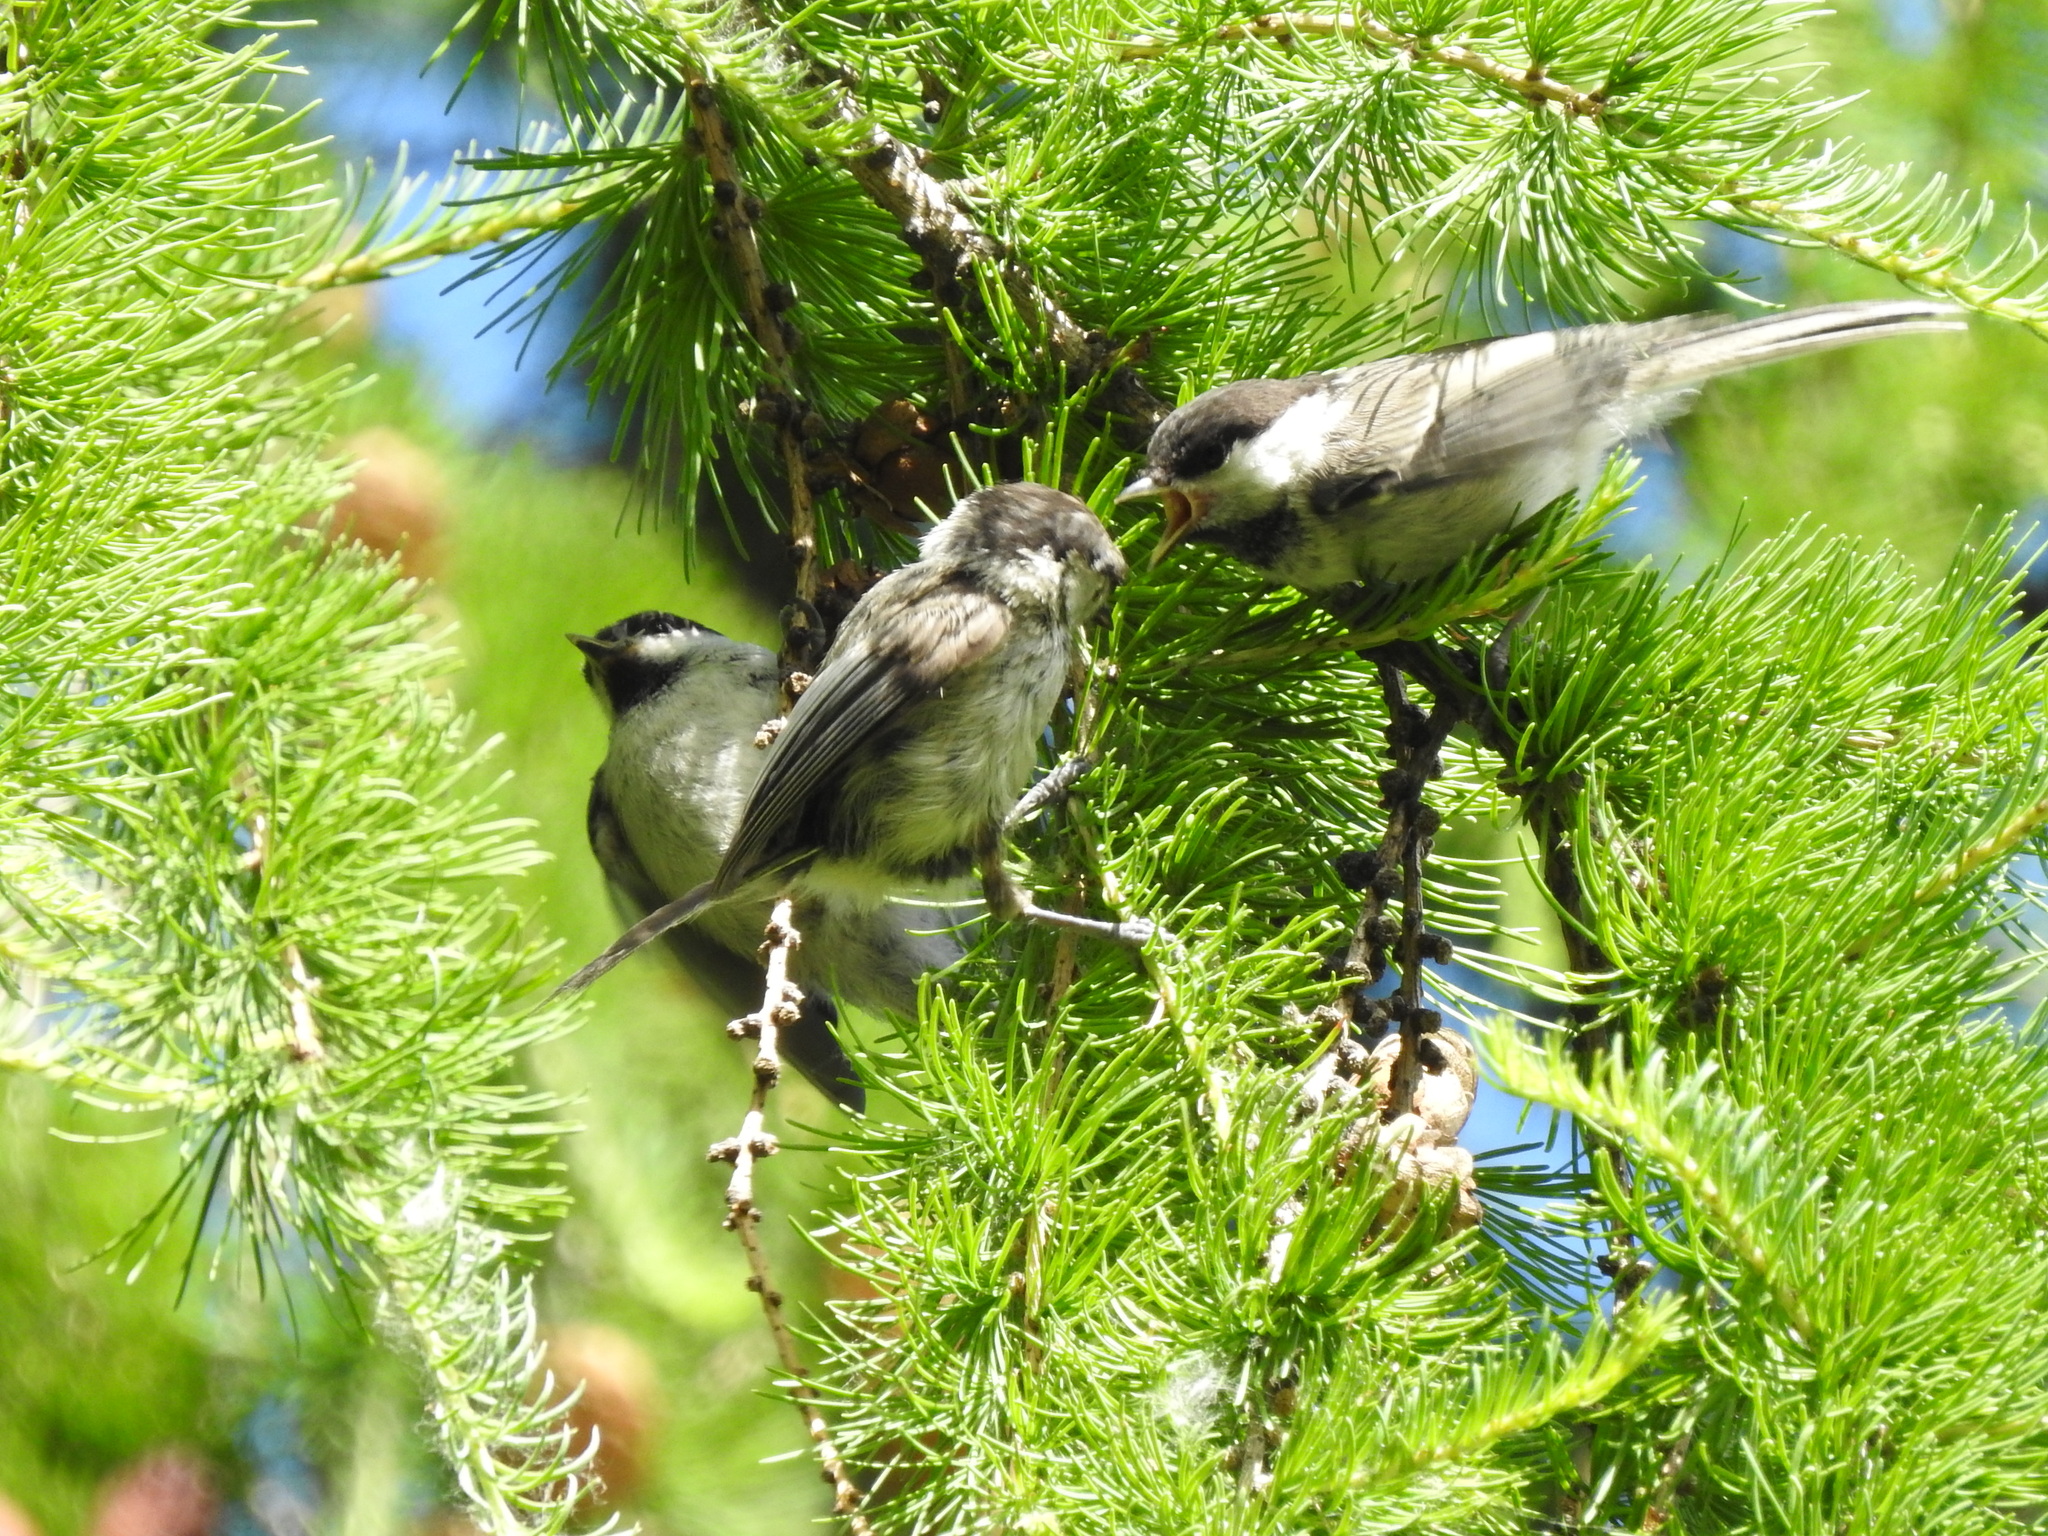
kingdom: Animalia
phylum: Chordata
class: Aves
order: Passeriformes
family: Paridae
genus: Poecile
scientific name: Poecile montanus
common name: Willow tit
